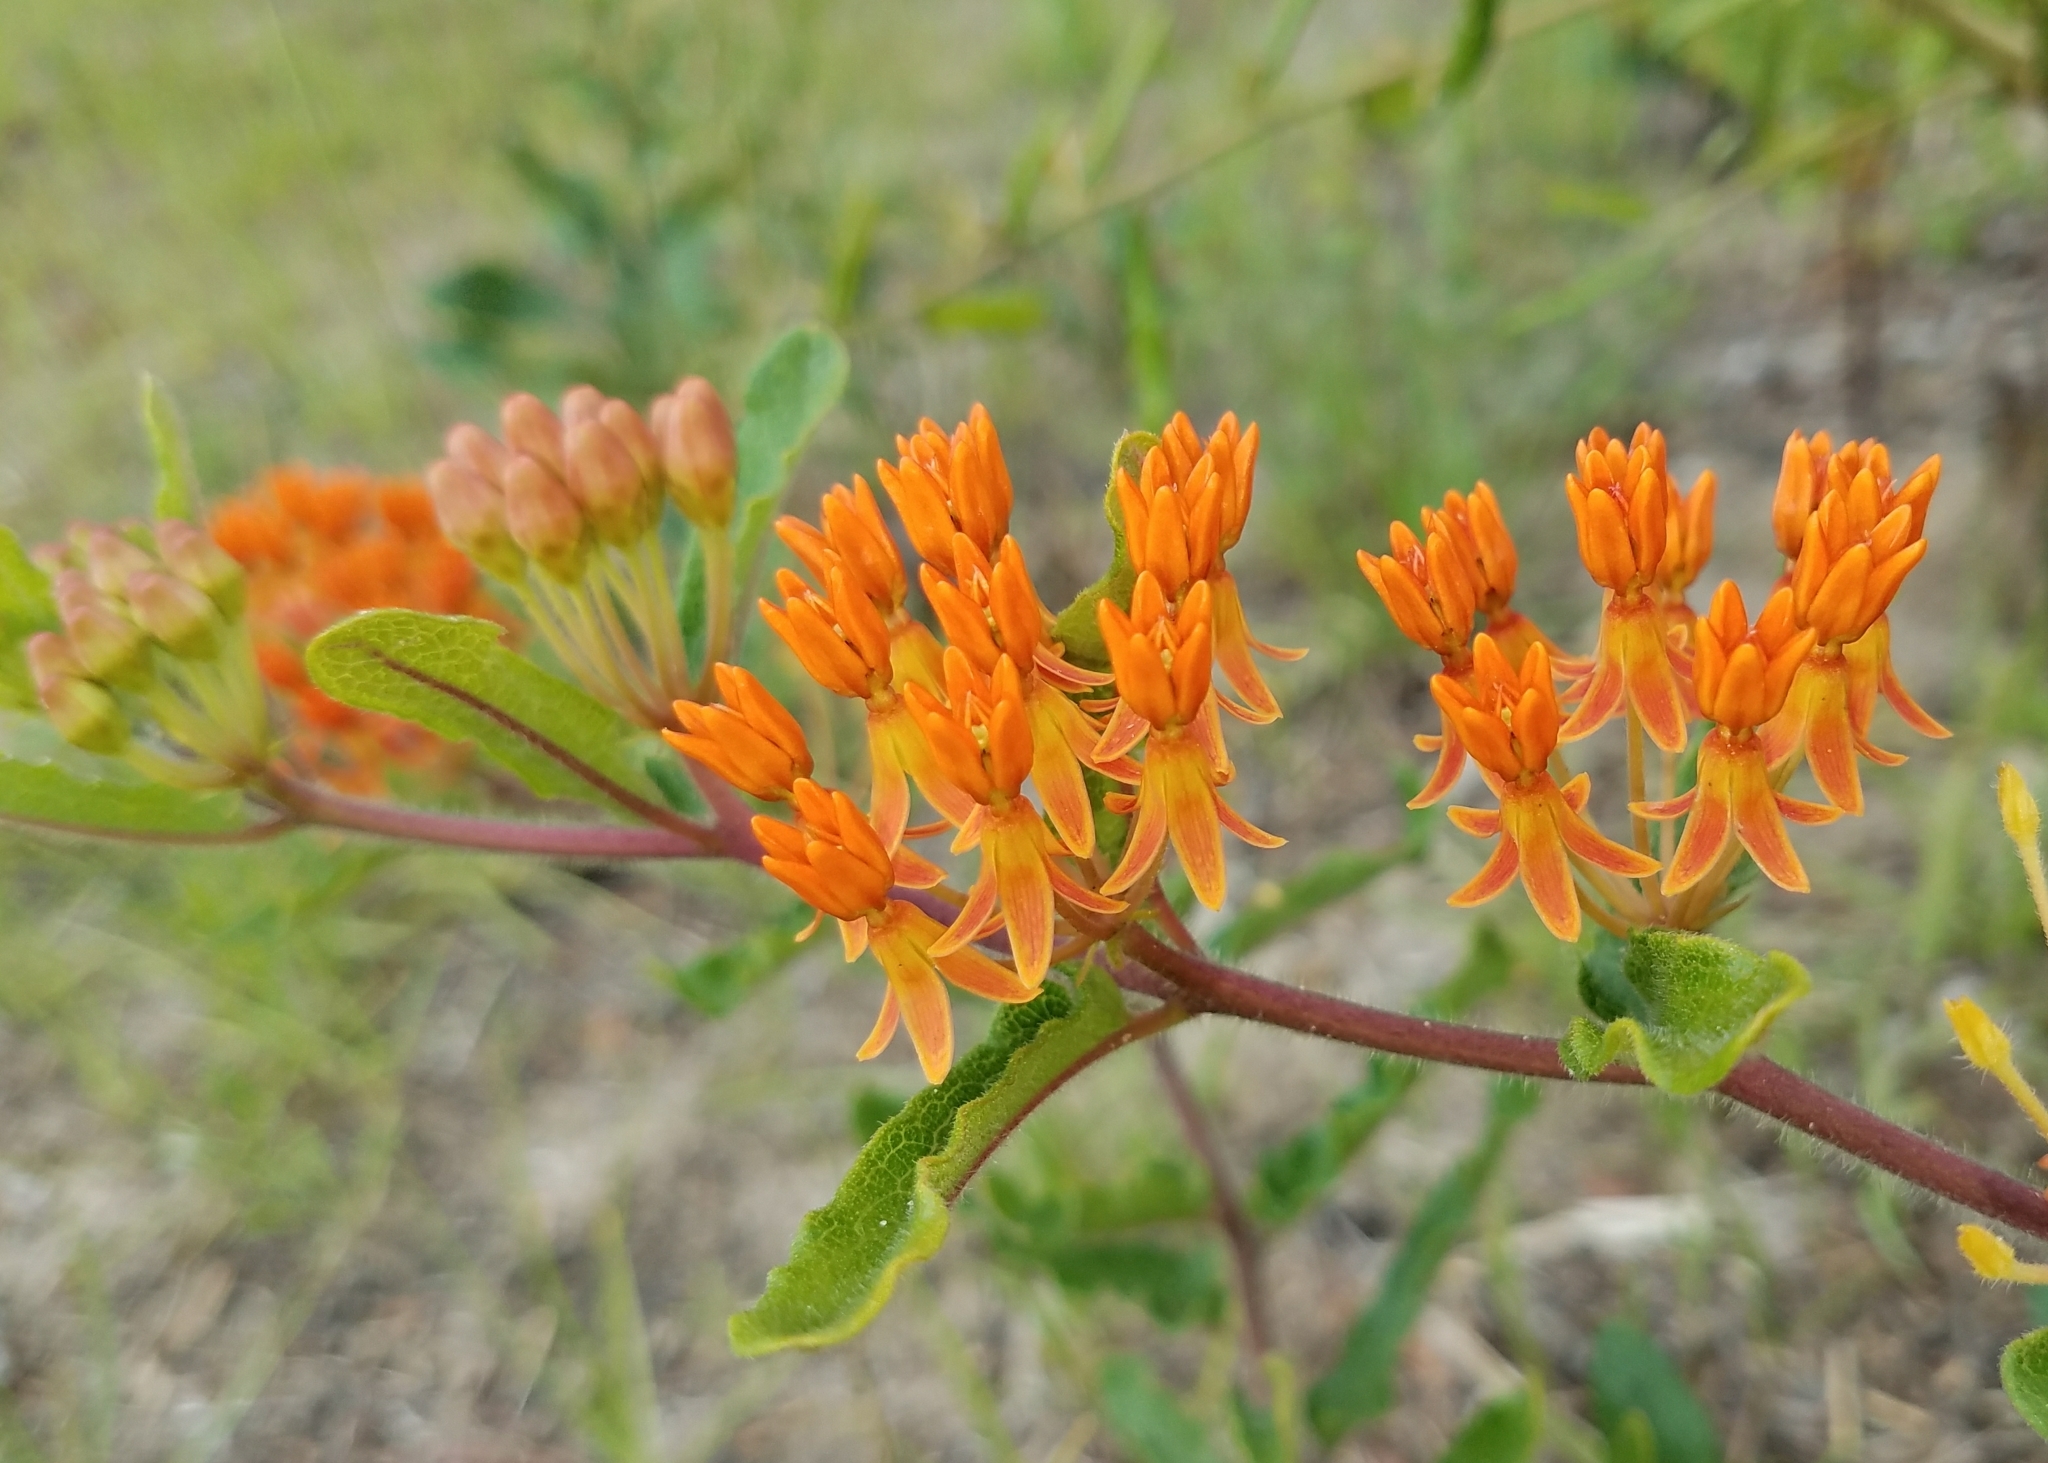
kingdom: Plantae
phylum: Tracheophyta
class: Magnoliopsida
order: Gentianales
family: Apocynaceae
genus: Asclepias
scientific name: Asclepias tuberosa
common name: Butterfly milkweed
